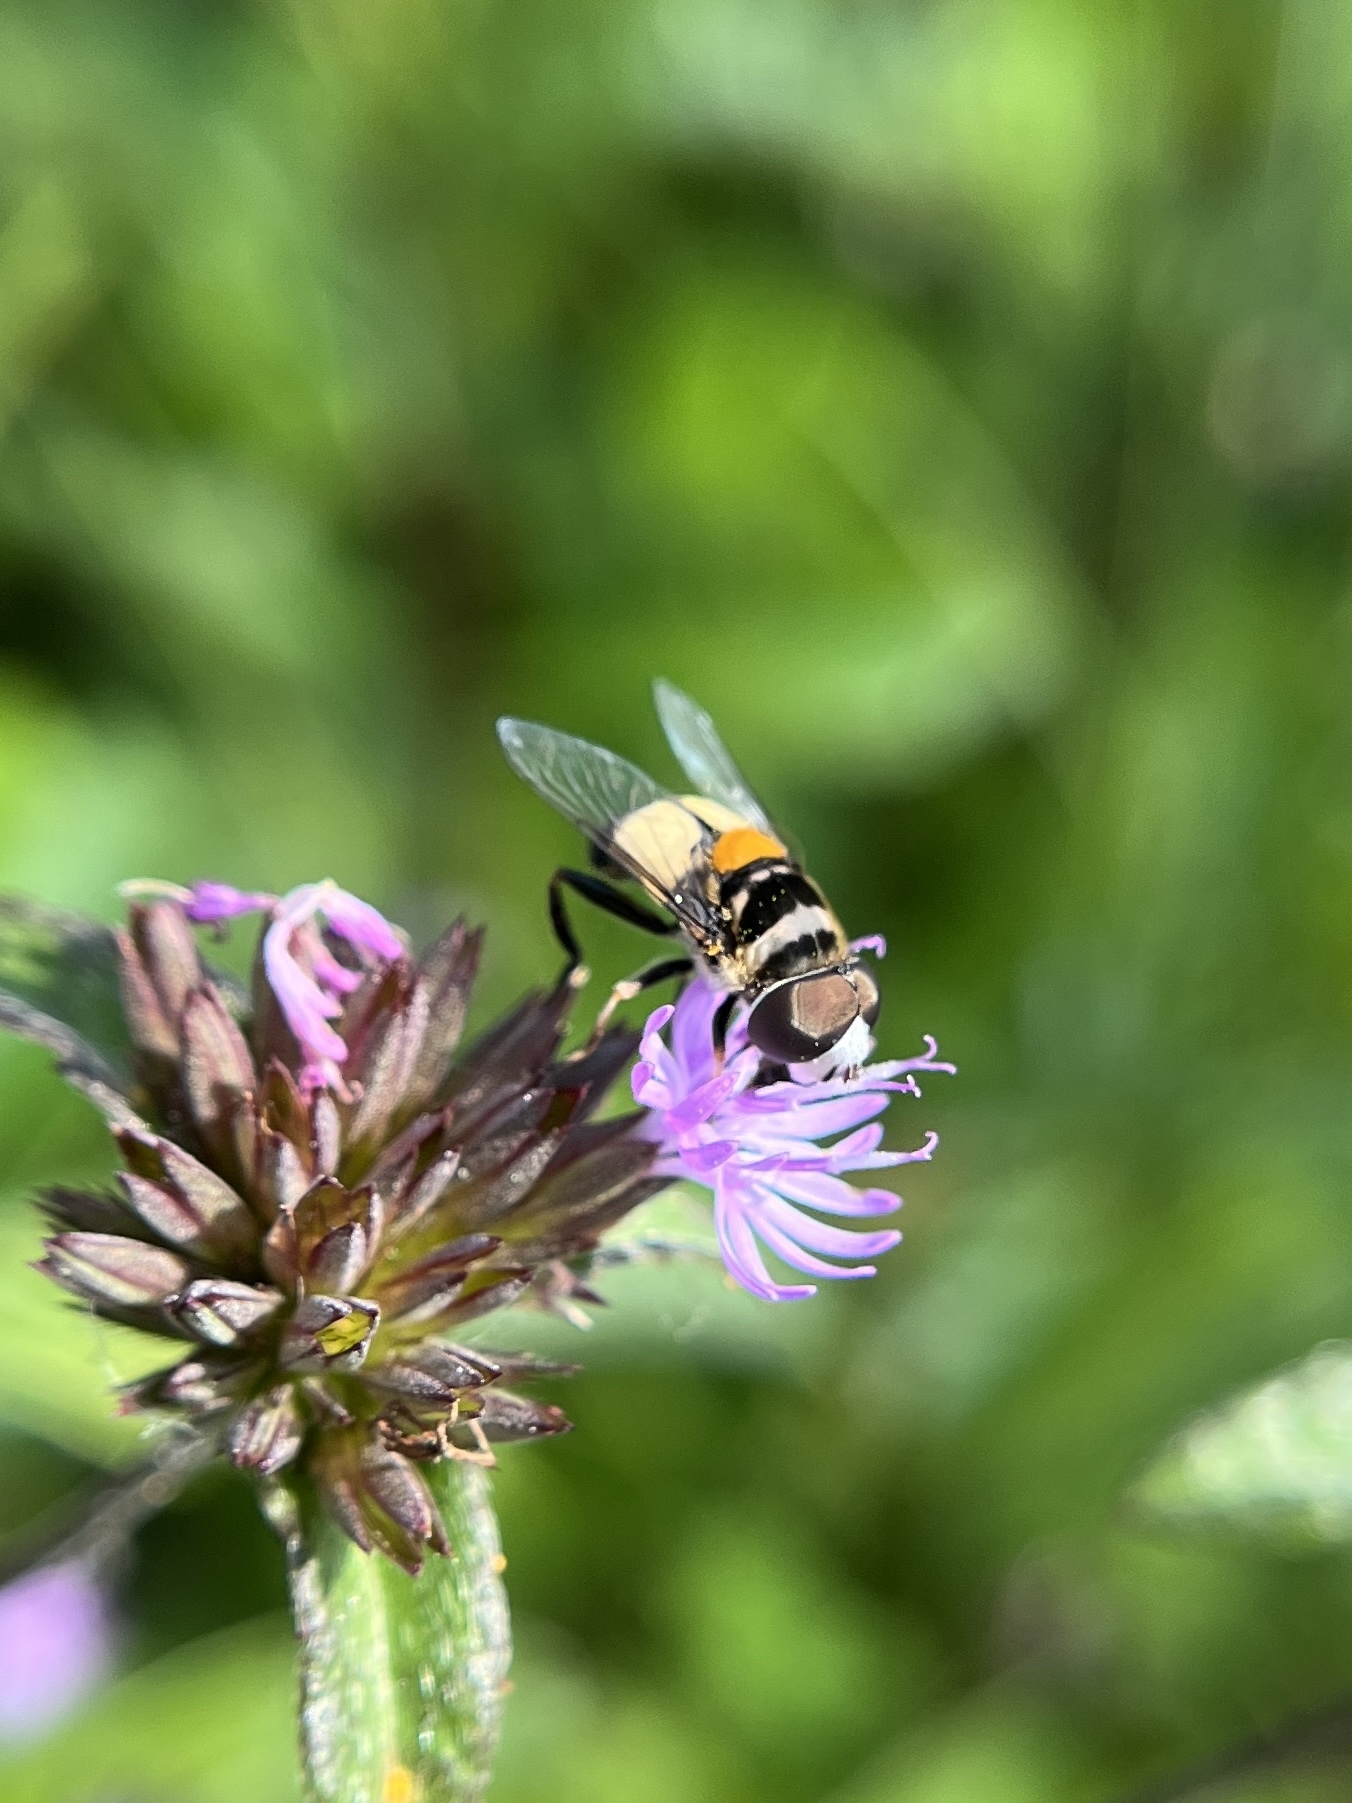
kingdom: Animalia
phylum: Arthropoda
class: Insecta
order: Diptera
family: Syrphidae
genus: Palpada
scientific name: Palpada albifrons
